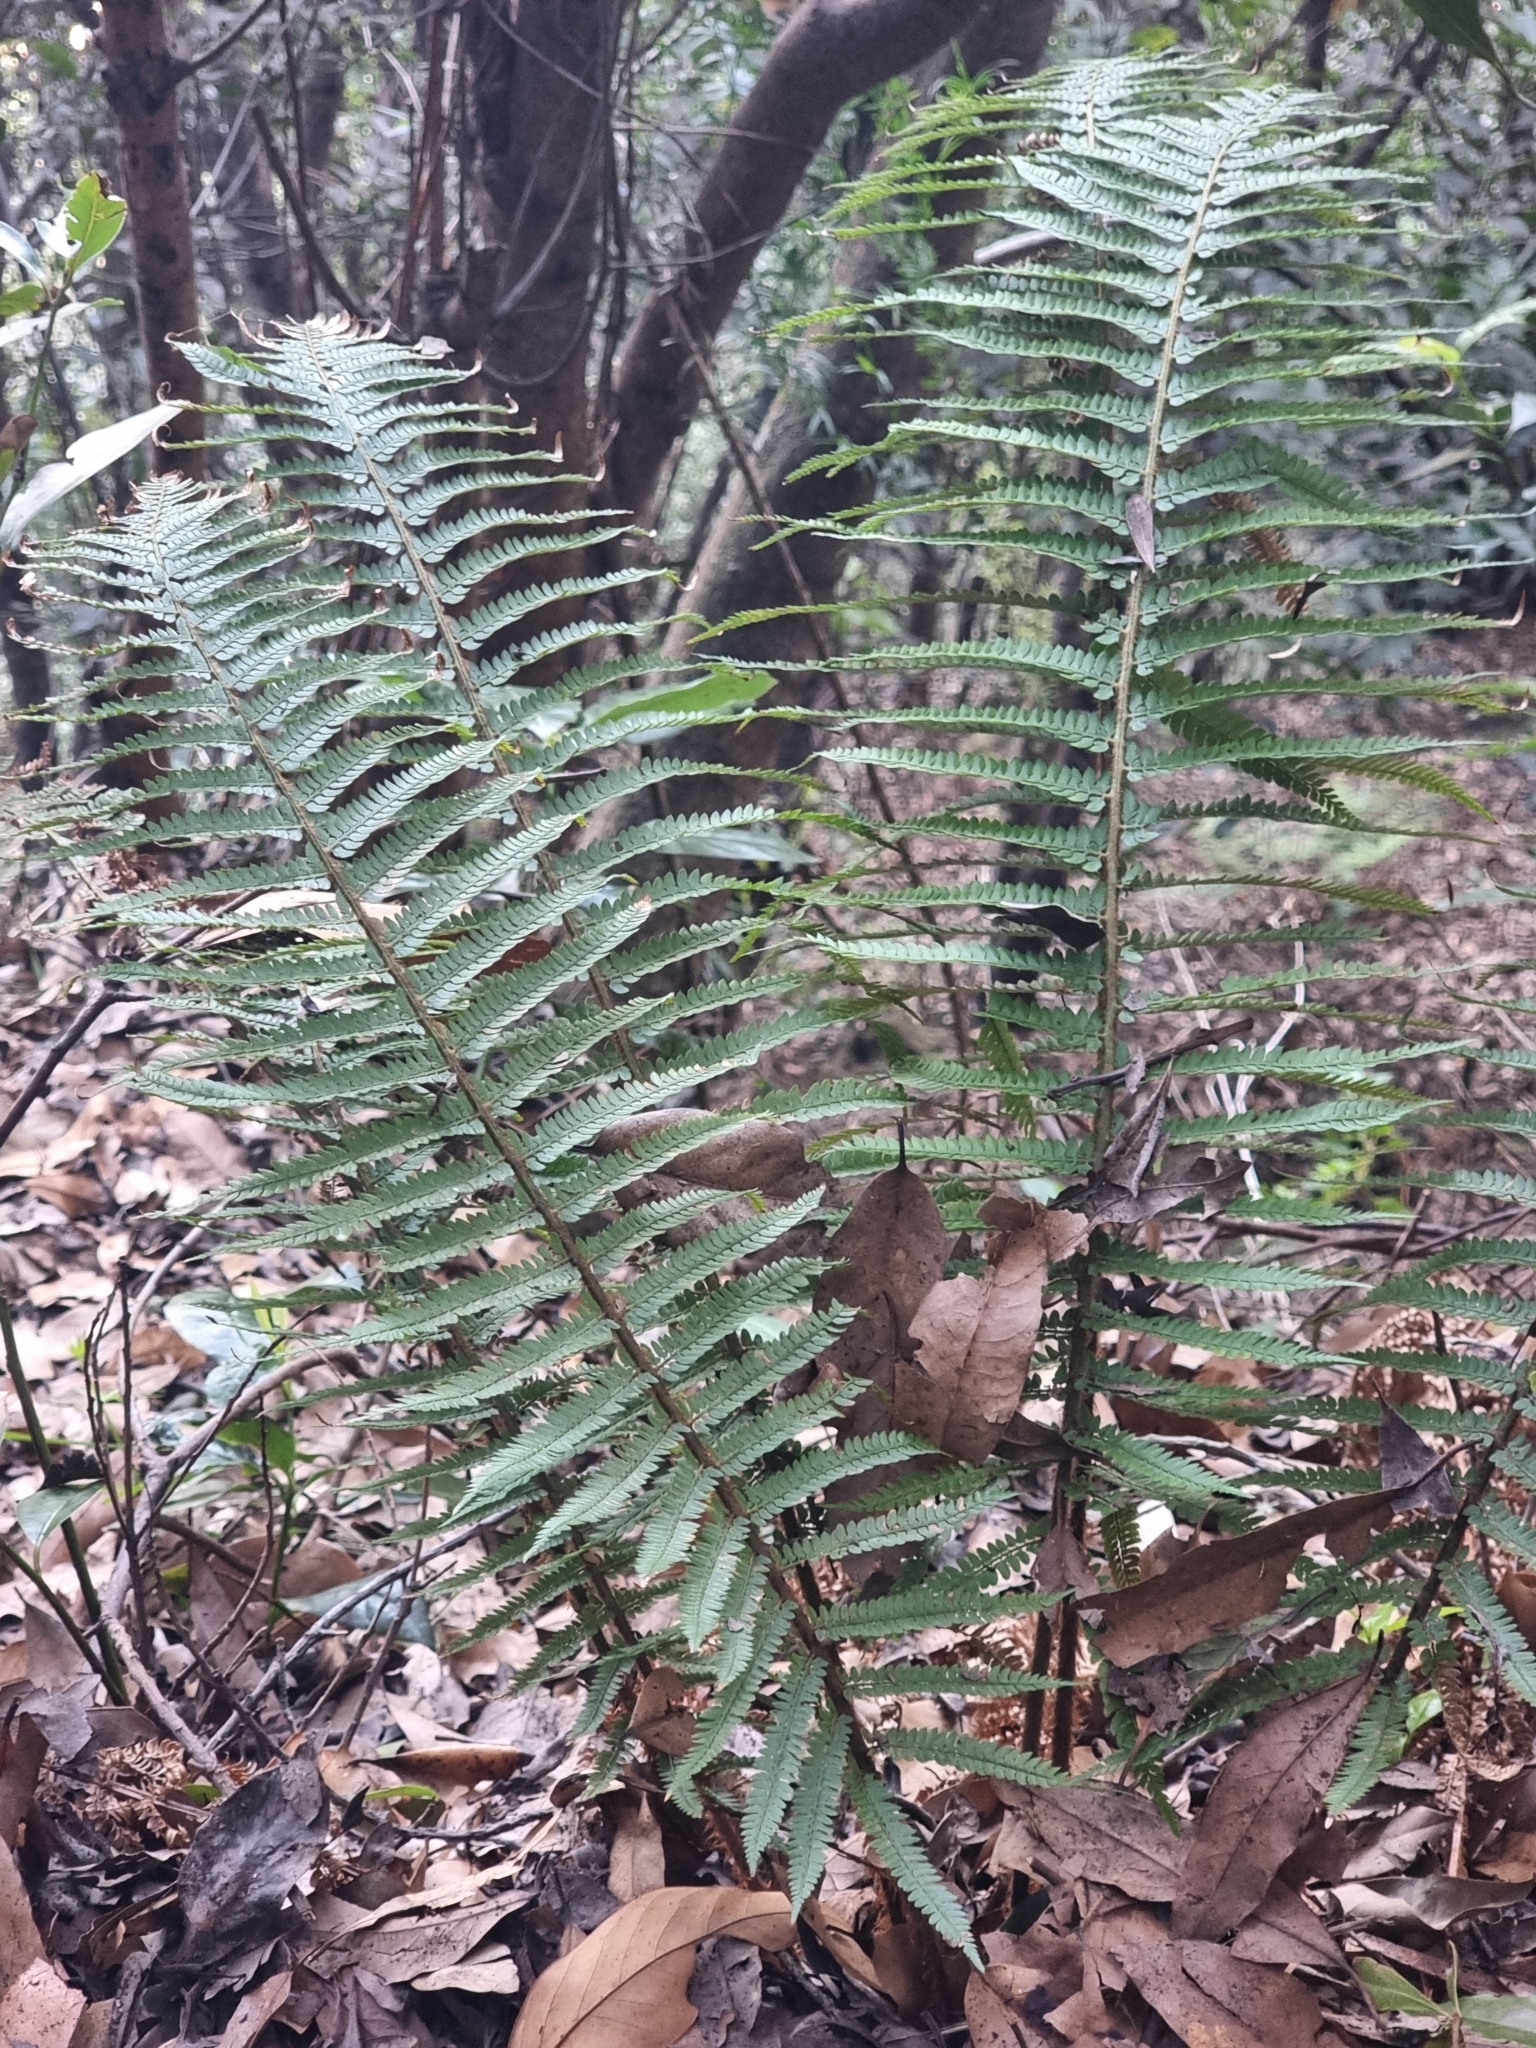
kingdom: Plantae
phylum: Tracheophyta
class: Polypodiopsida
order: Polypodiales
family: Dryopteridaceae
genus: Polystichum
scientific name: Polystichum setiferum
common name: Soft shield-fern
